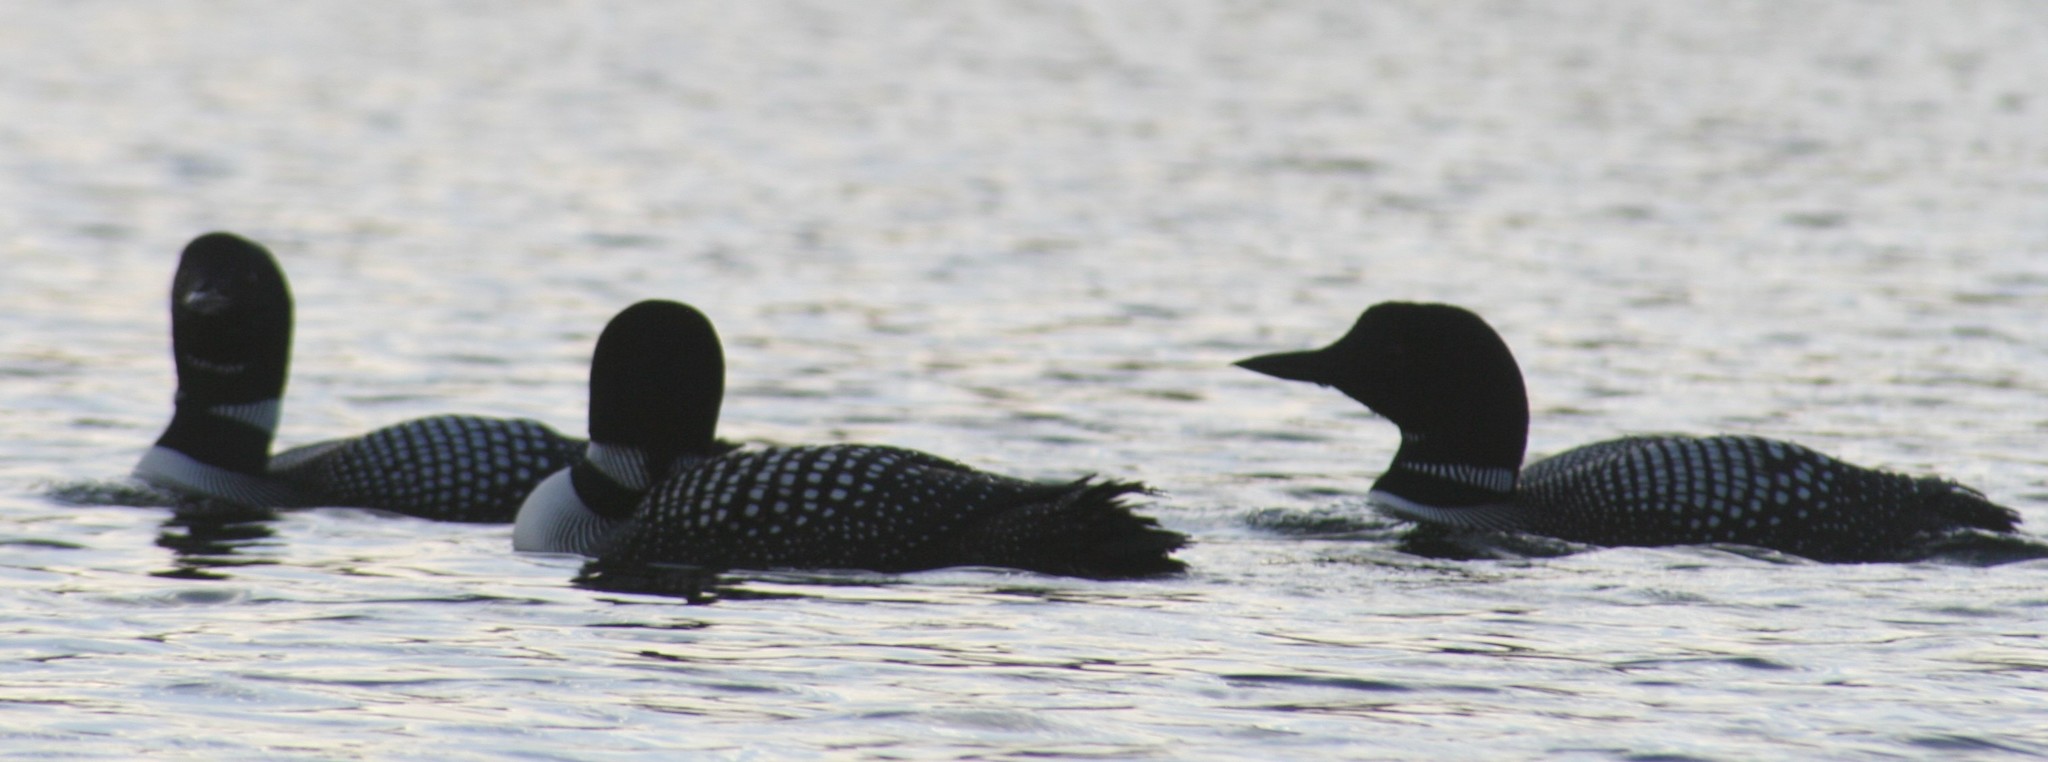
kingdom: Animalia
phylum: Chordata
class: Aves
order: Gaviiformes
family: Gaviidae
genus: Gavia
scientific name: Gavia immer
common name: Common loon
